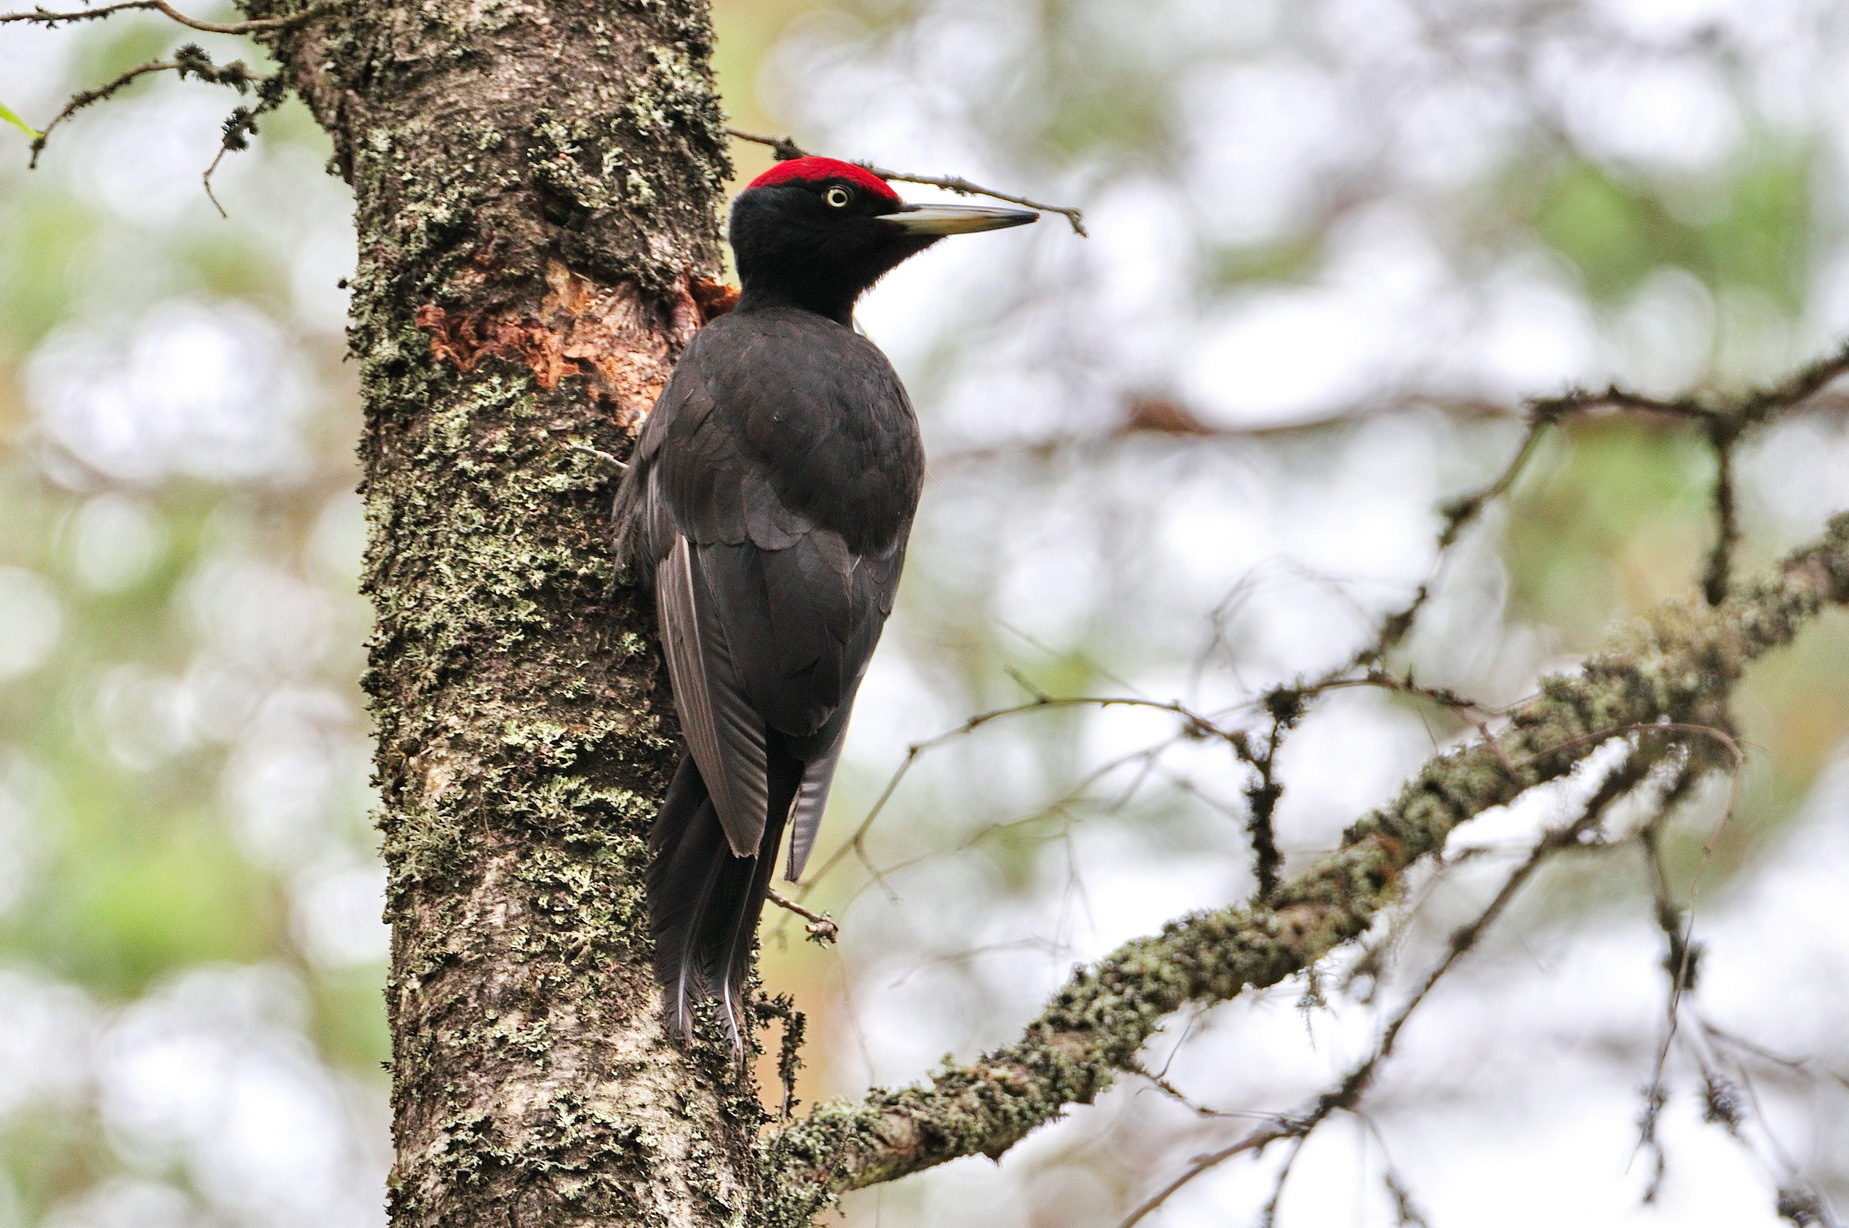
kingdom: Animalia
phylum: Chordata
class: Aves
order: Piciformes
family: Picidae
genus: Dryocopus
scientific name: Dryocopus martius
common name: Black woodpecker
